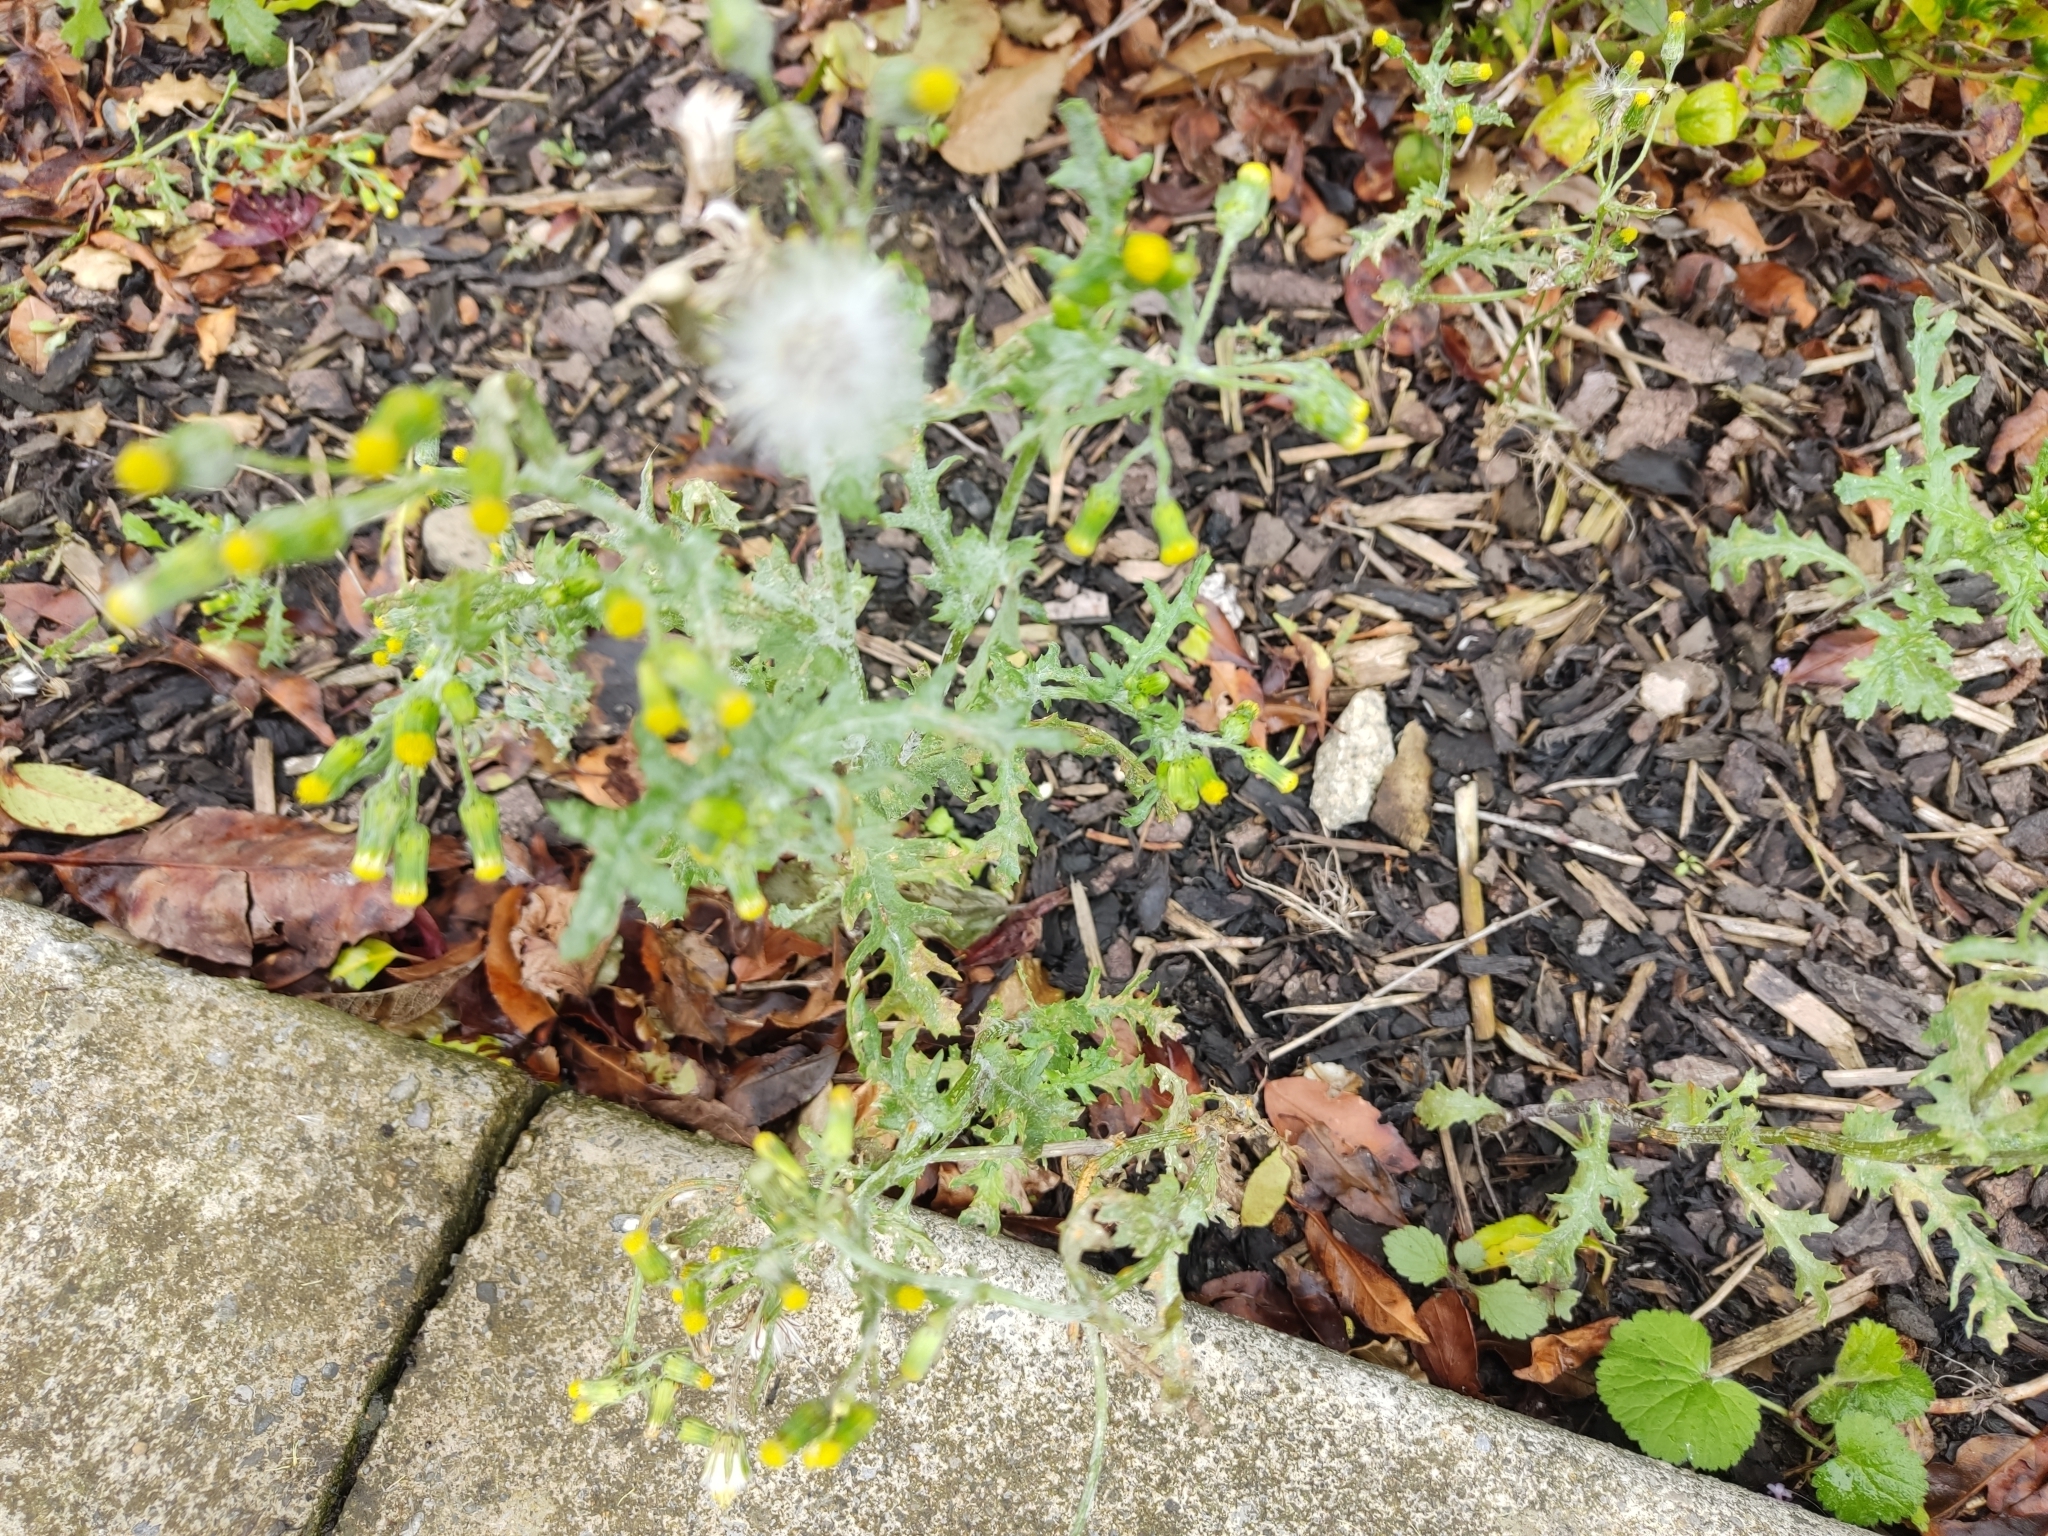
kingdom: Plantae
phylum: Tracheophyta
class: Magnoliopsida
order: Asterales
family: Asteraceae
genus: Senecio
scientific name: Senecio vulgaris
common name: Old-man-in-the-spring
